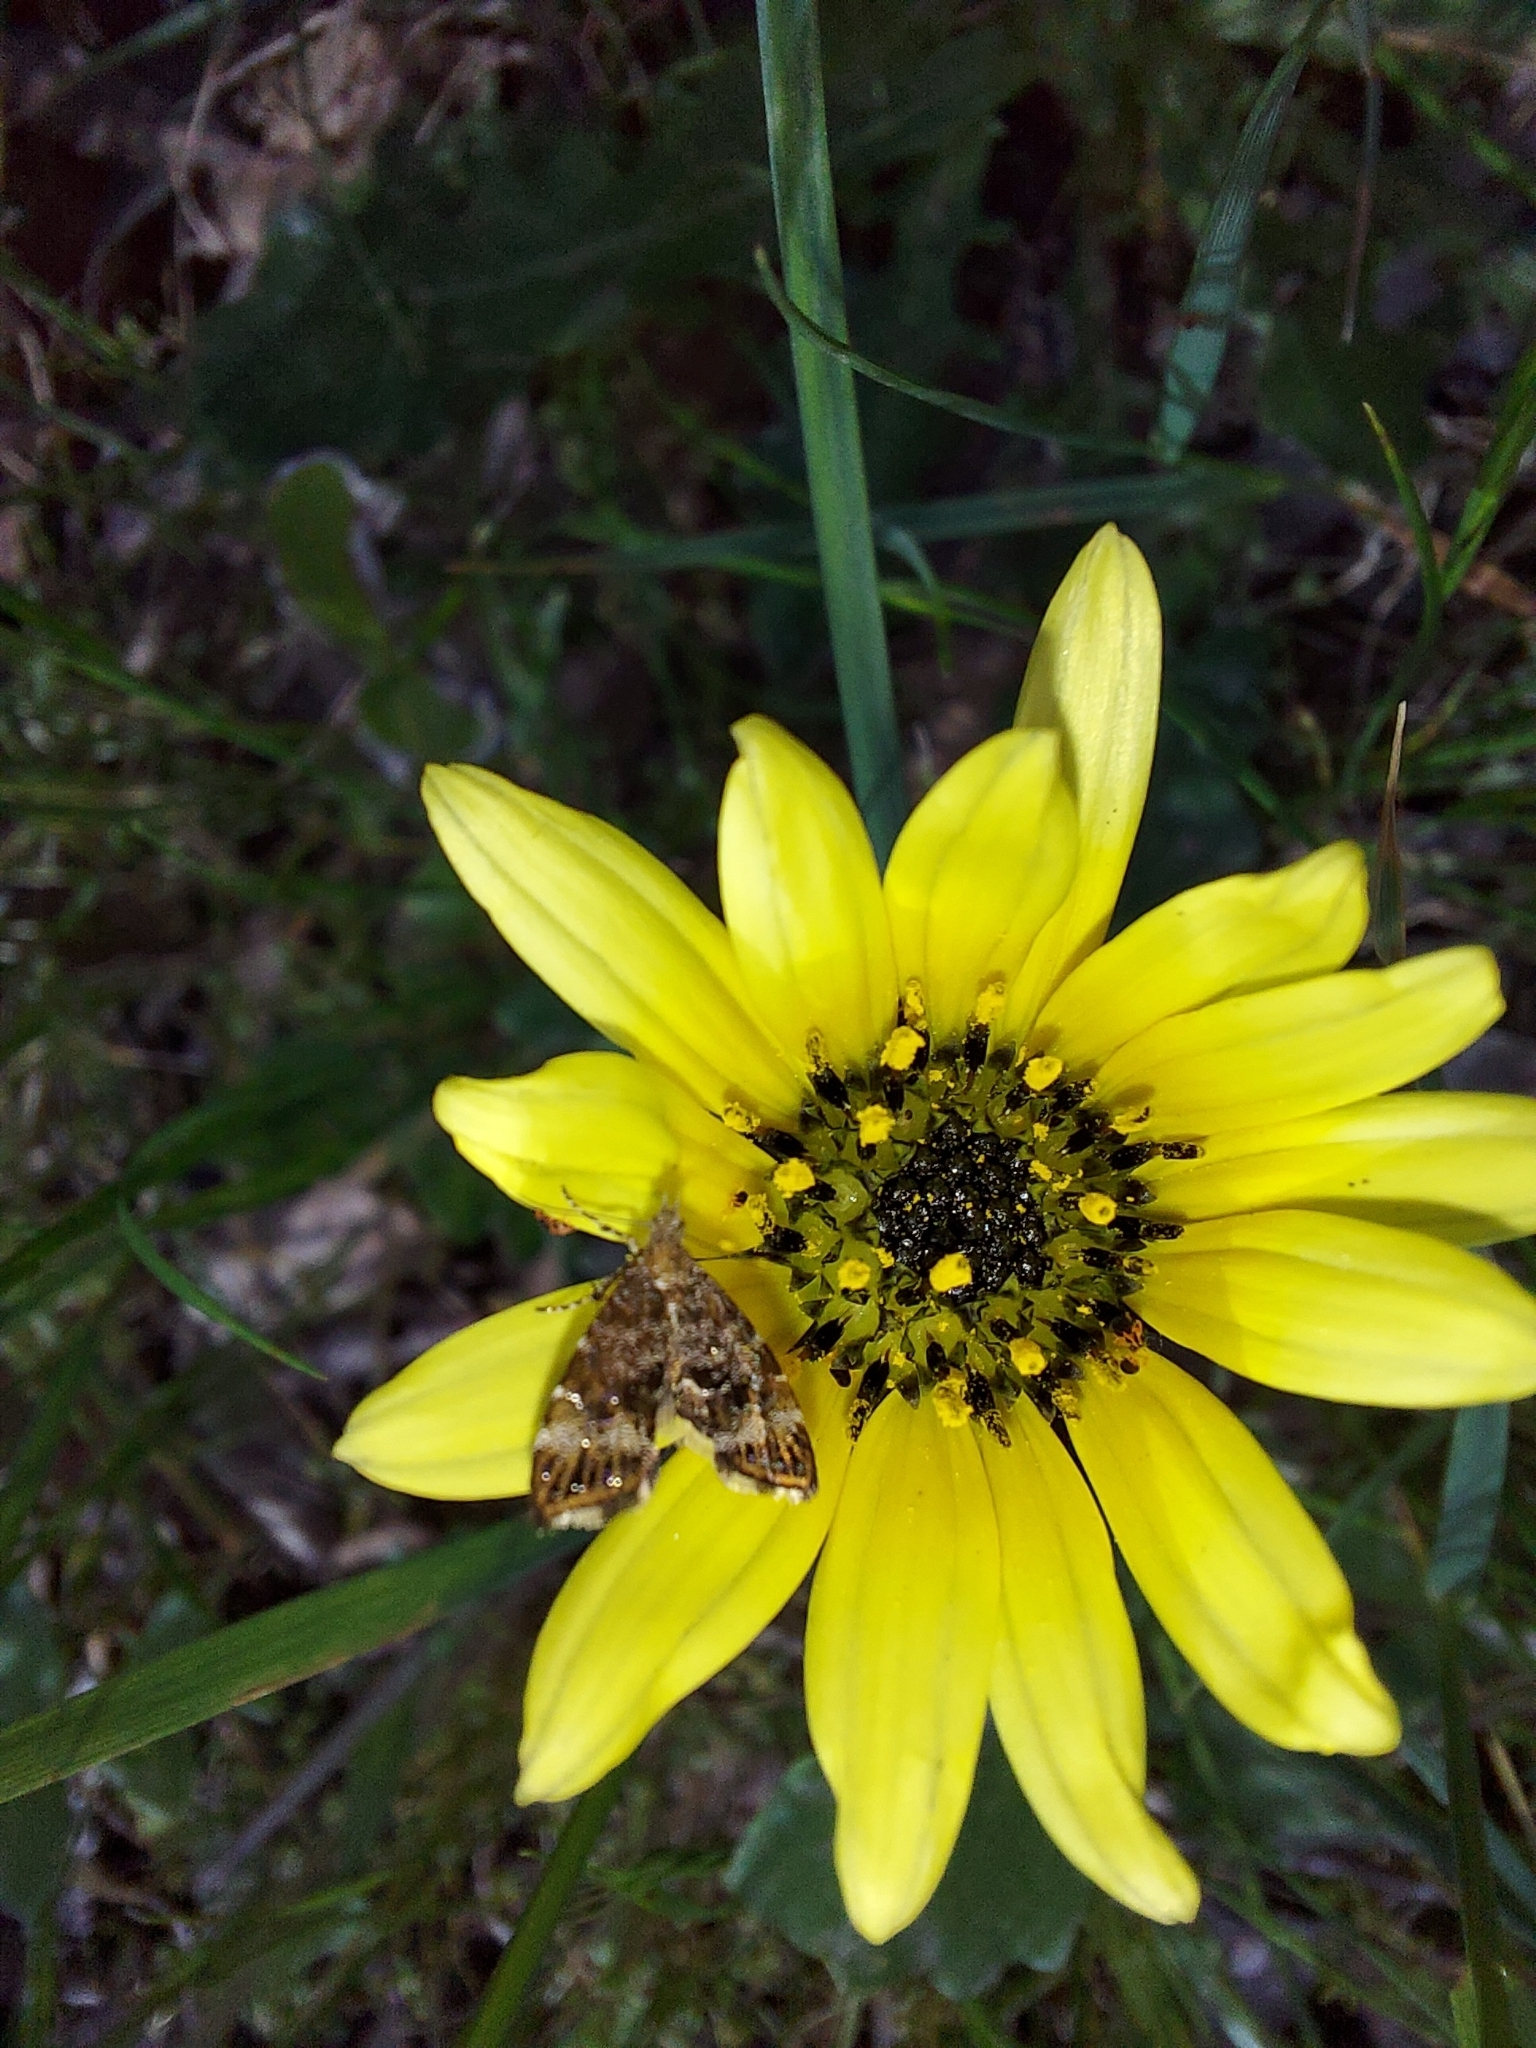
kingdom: Animalia
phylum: Arthropoda
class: Insecta
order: Lepidoptera
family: Choreutidae
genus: Asterivora
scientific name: Asterivora homotypa
